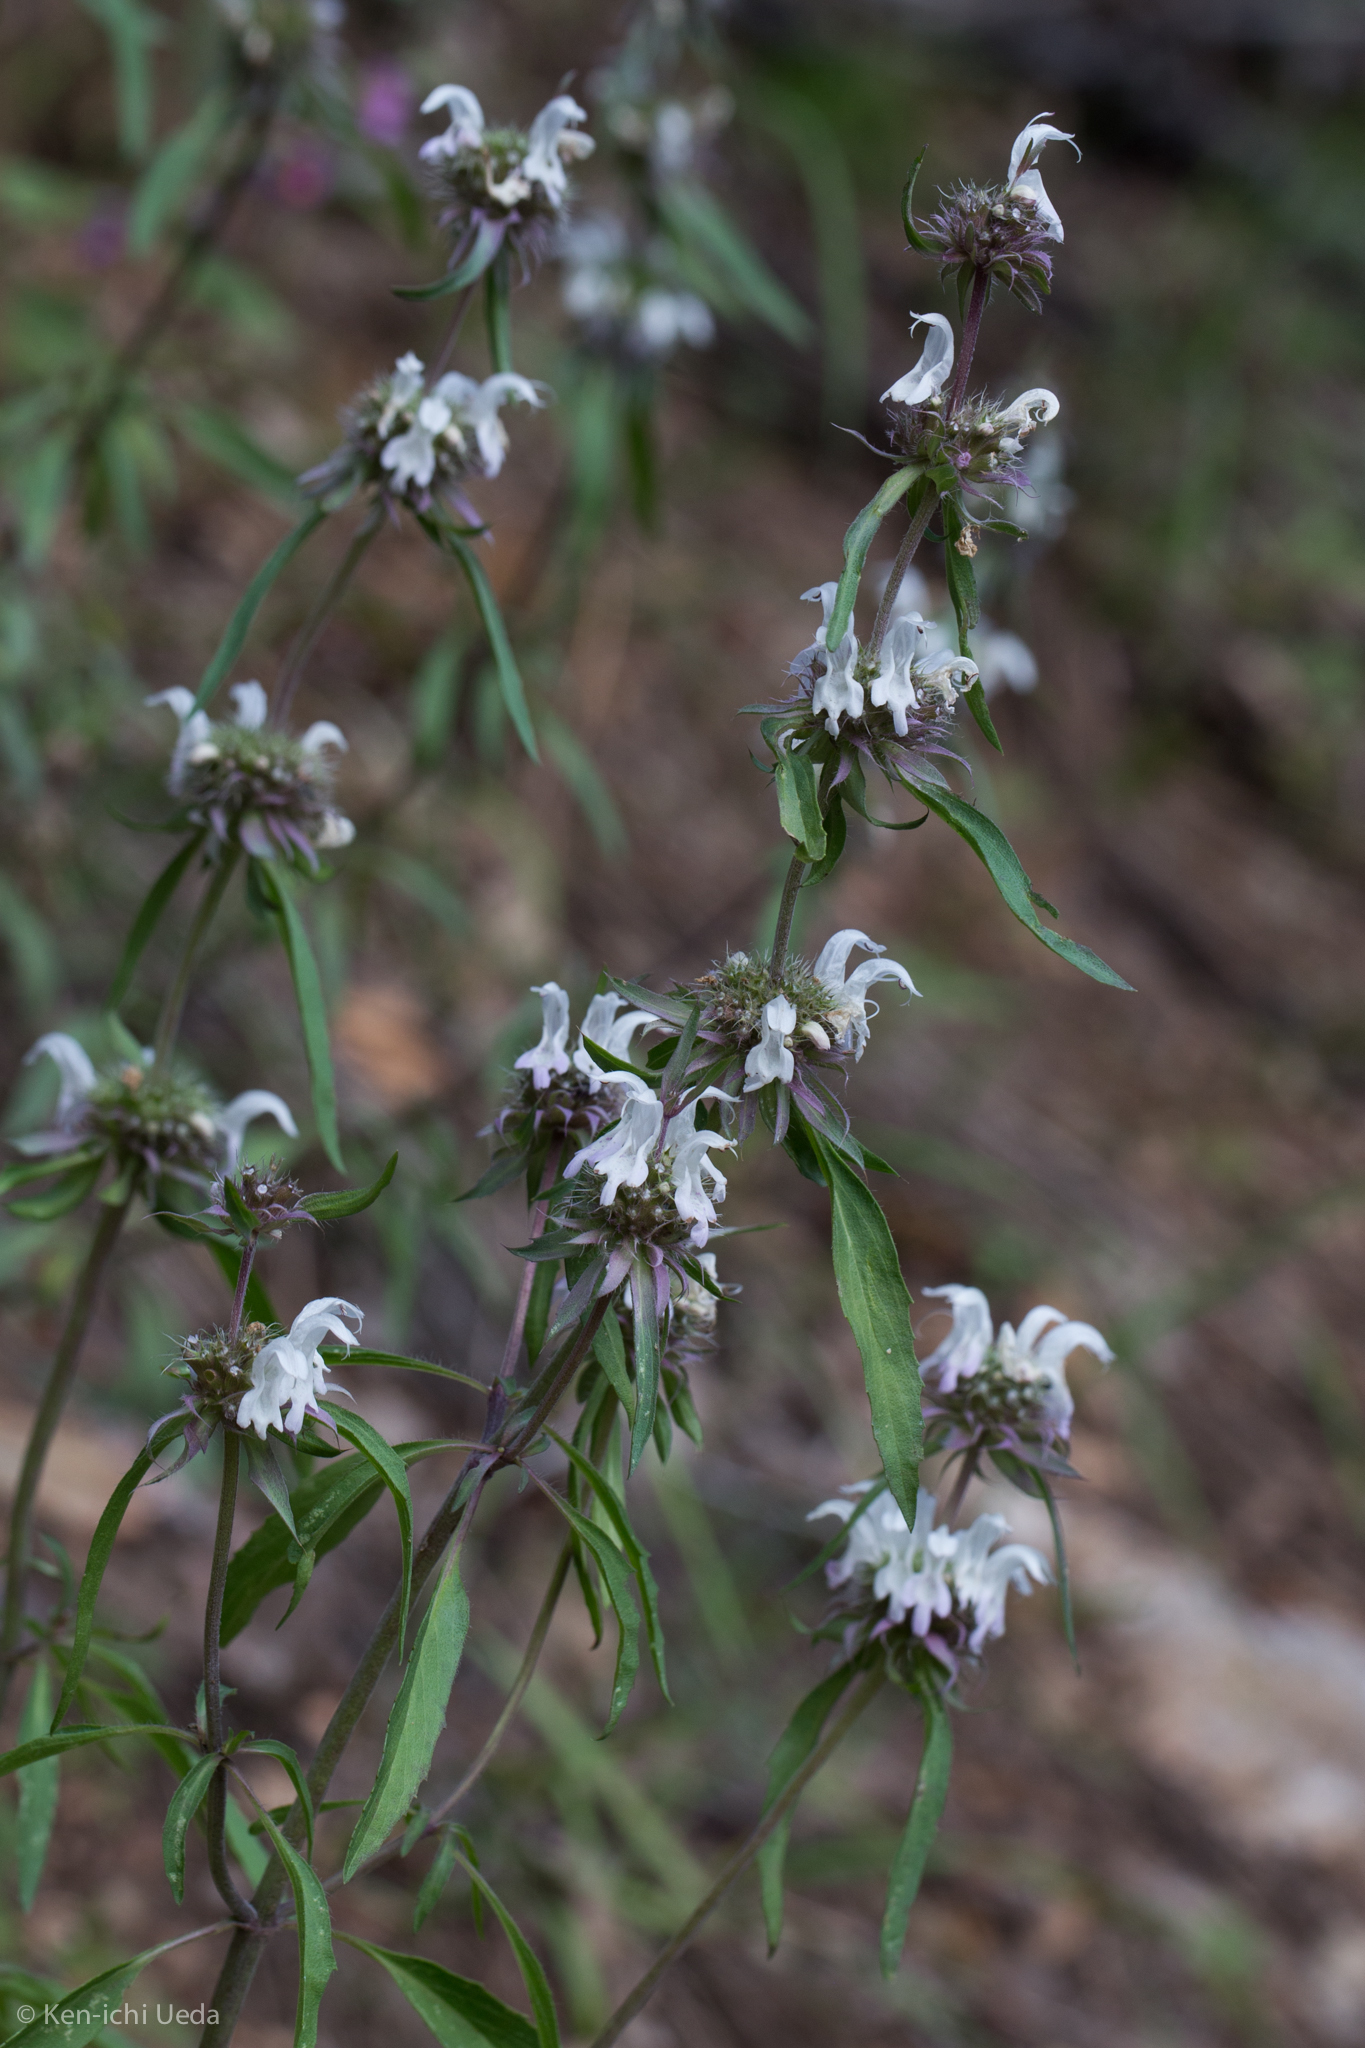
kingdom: Plantae
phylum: Tracheophyta
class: Magnoliopsida
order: Lamiales
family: Lamiaceae
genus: Monarda
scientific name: Monarda citriodora
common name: Lemon beebalm
